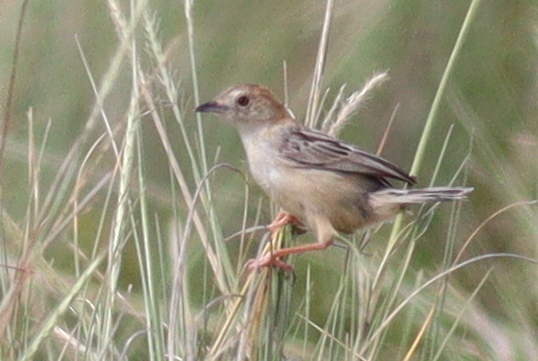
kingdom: Animalia
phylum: Chordata
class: Aves
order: Passeriformes
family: Cisticolidae
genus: Cisticola
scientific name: Cisticola robustus
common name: Stout cisticola
